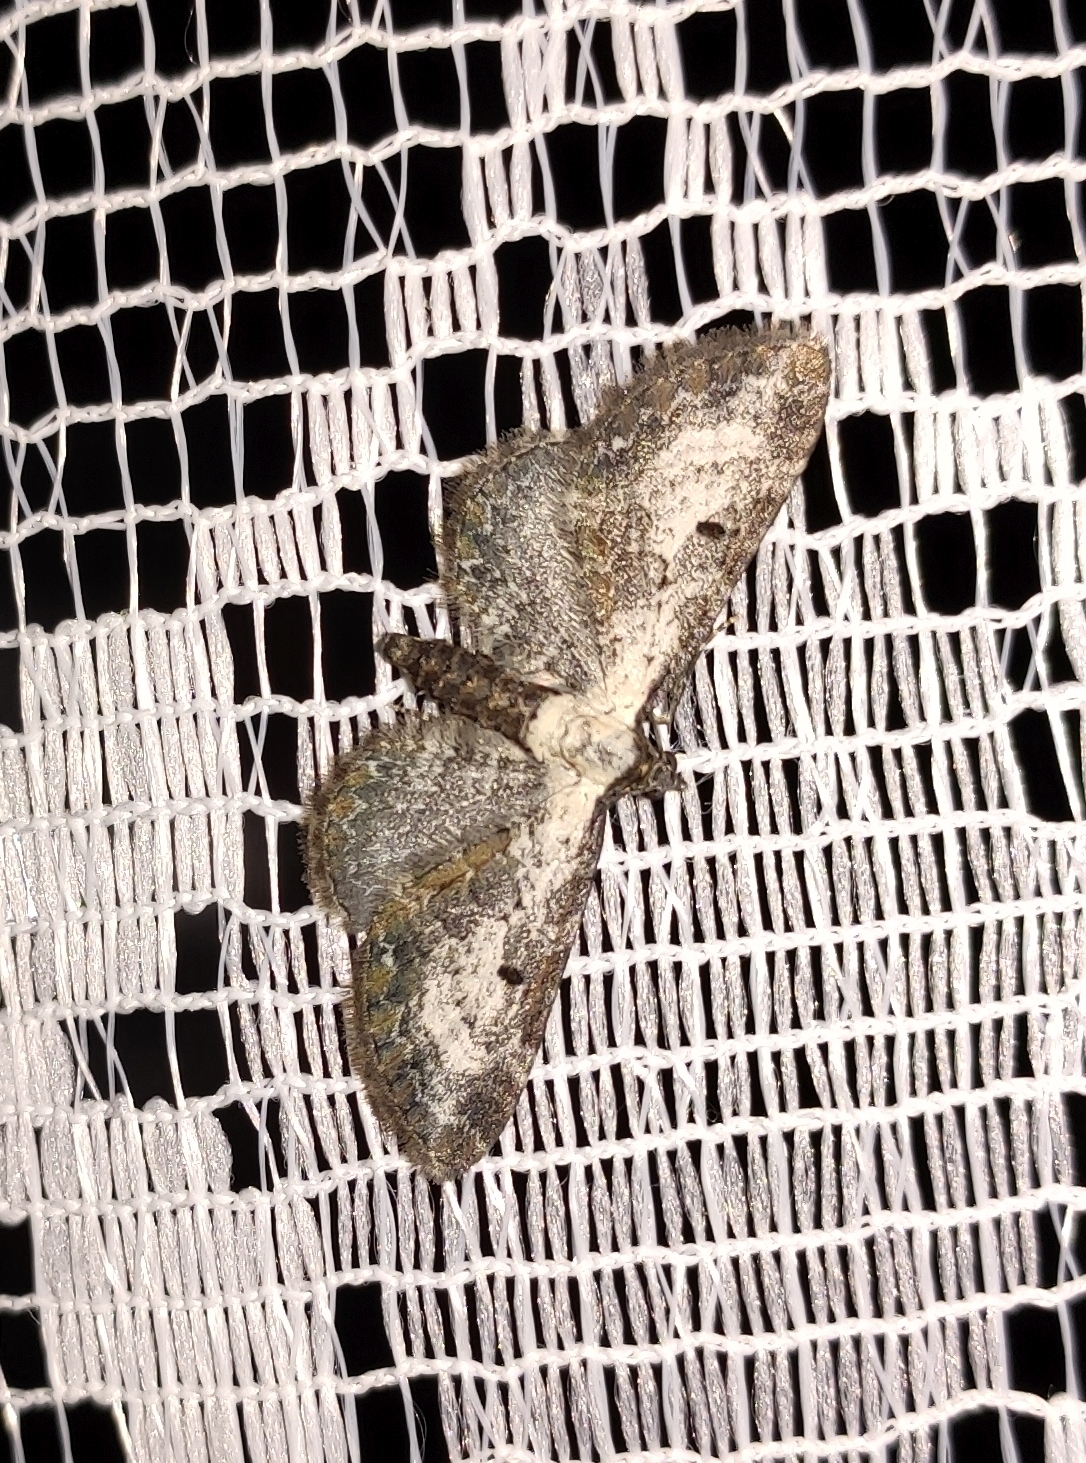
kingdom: Animalia
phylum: Arthropoda
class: Insecta
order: Lepidoptera
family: Geometridae
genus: Eupithecia
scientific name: Eupithecia succenturiata
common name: Bordered pug
